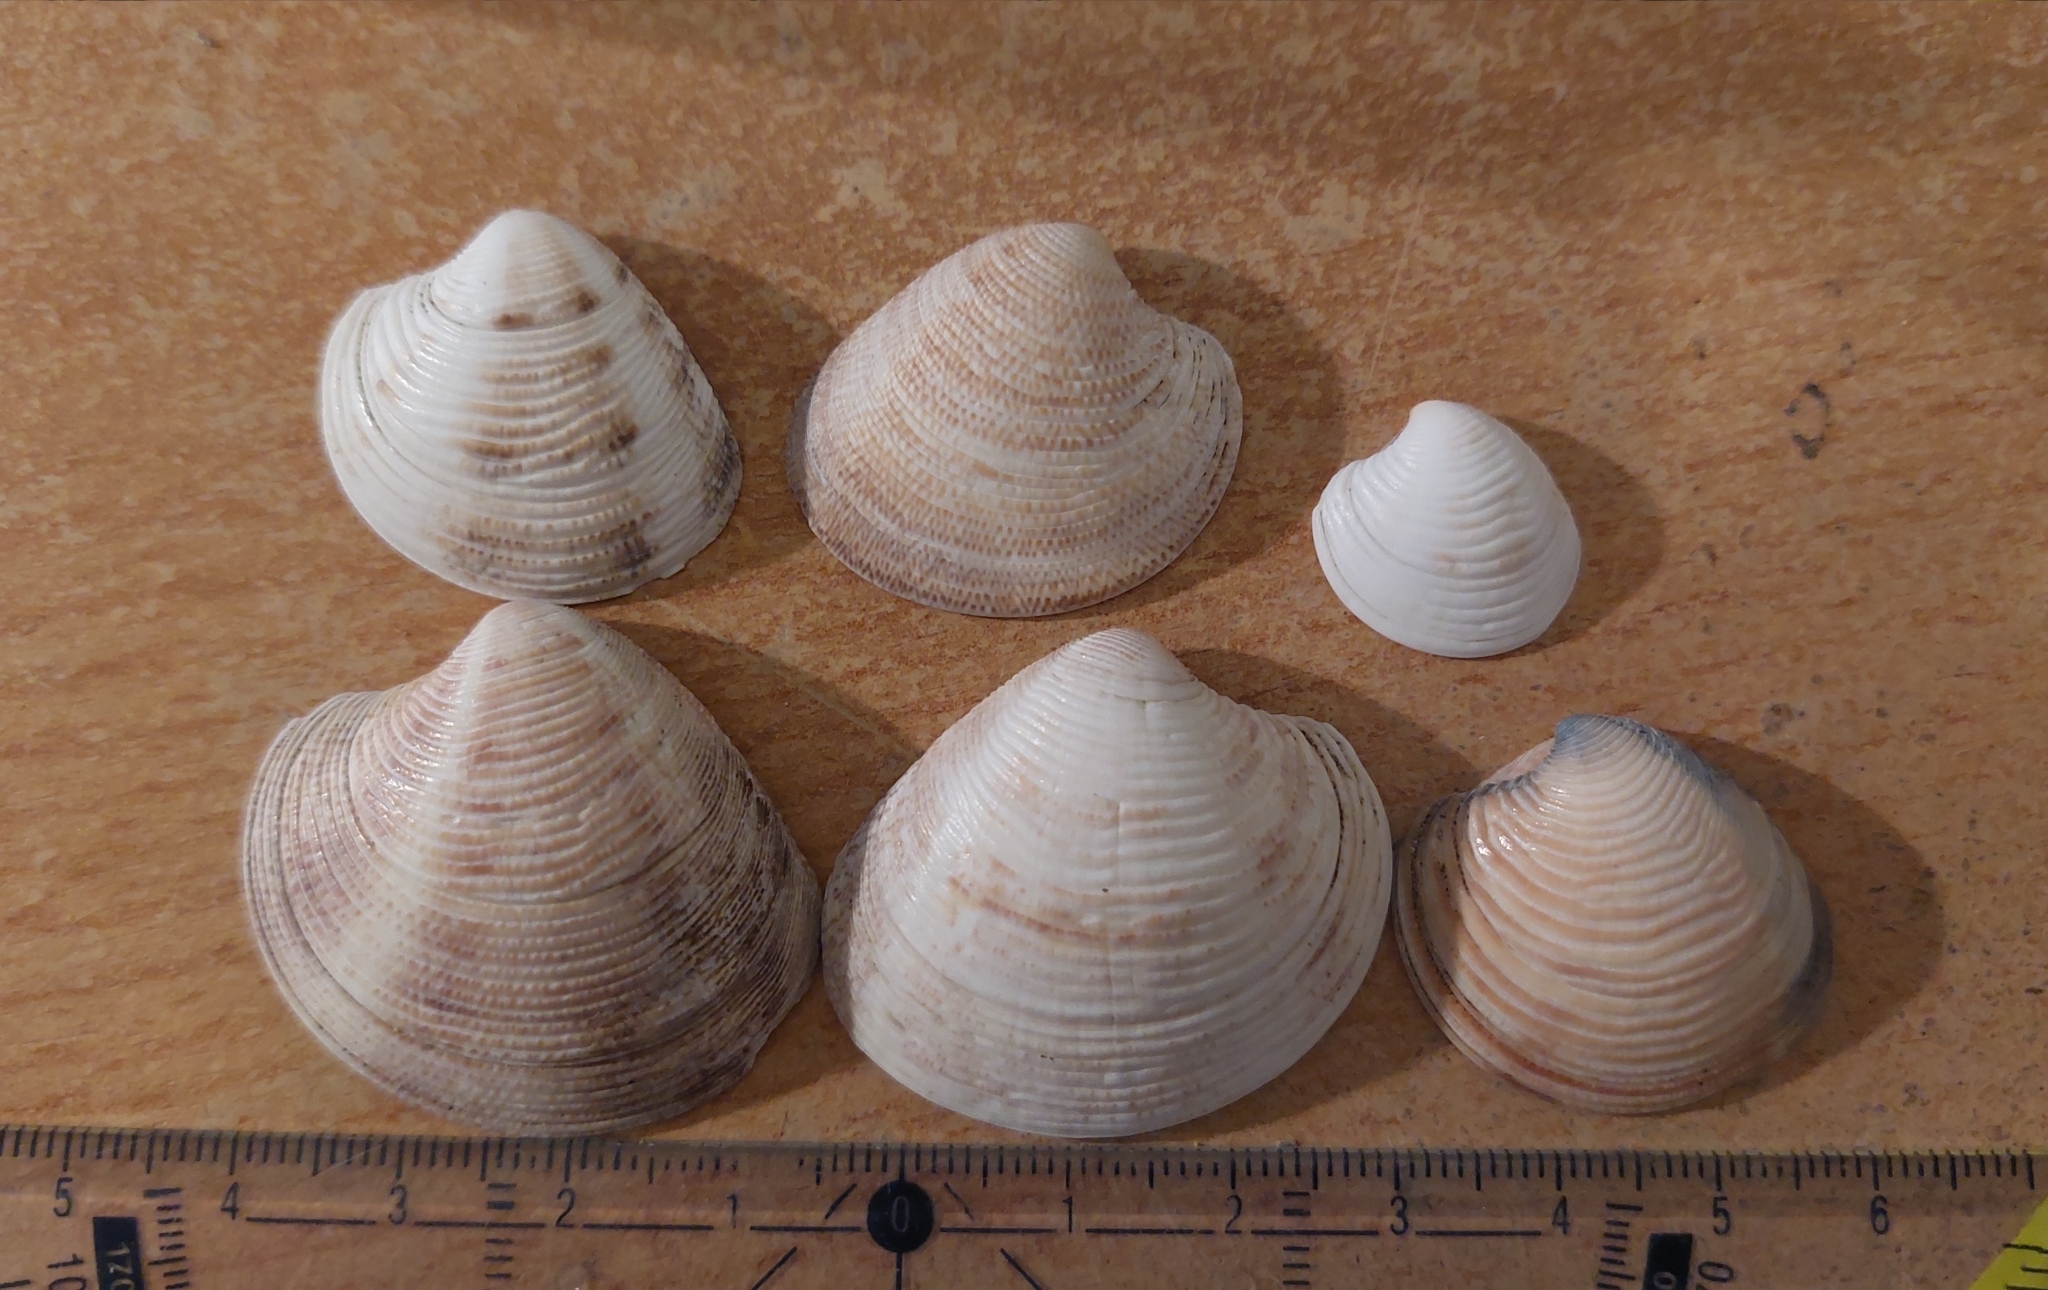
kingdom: Animalia
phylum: Mollusca
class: Bivalvia
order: Venerida
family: Veneridae
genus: Chamelea
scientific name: Chamelea gallina
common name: Chicken venus
